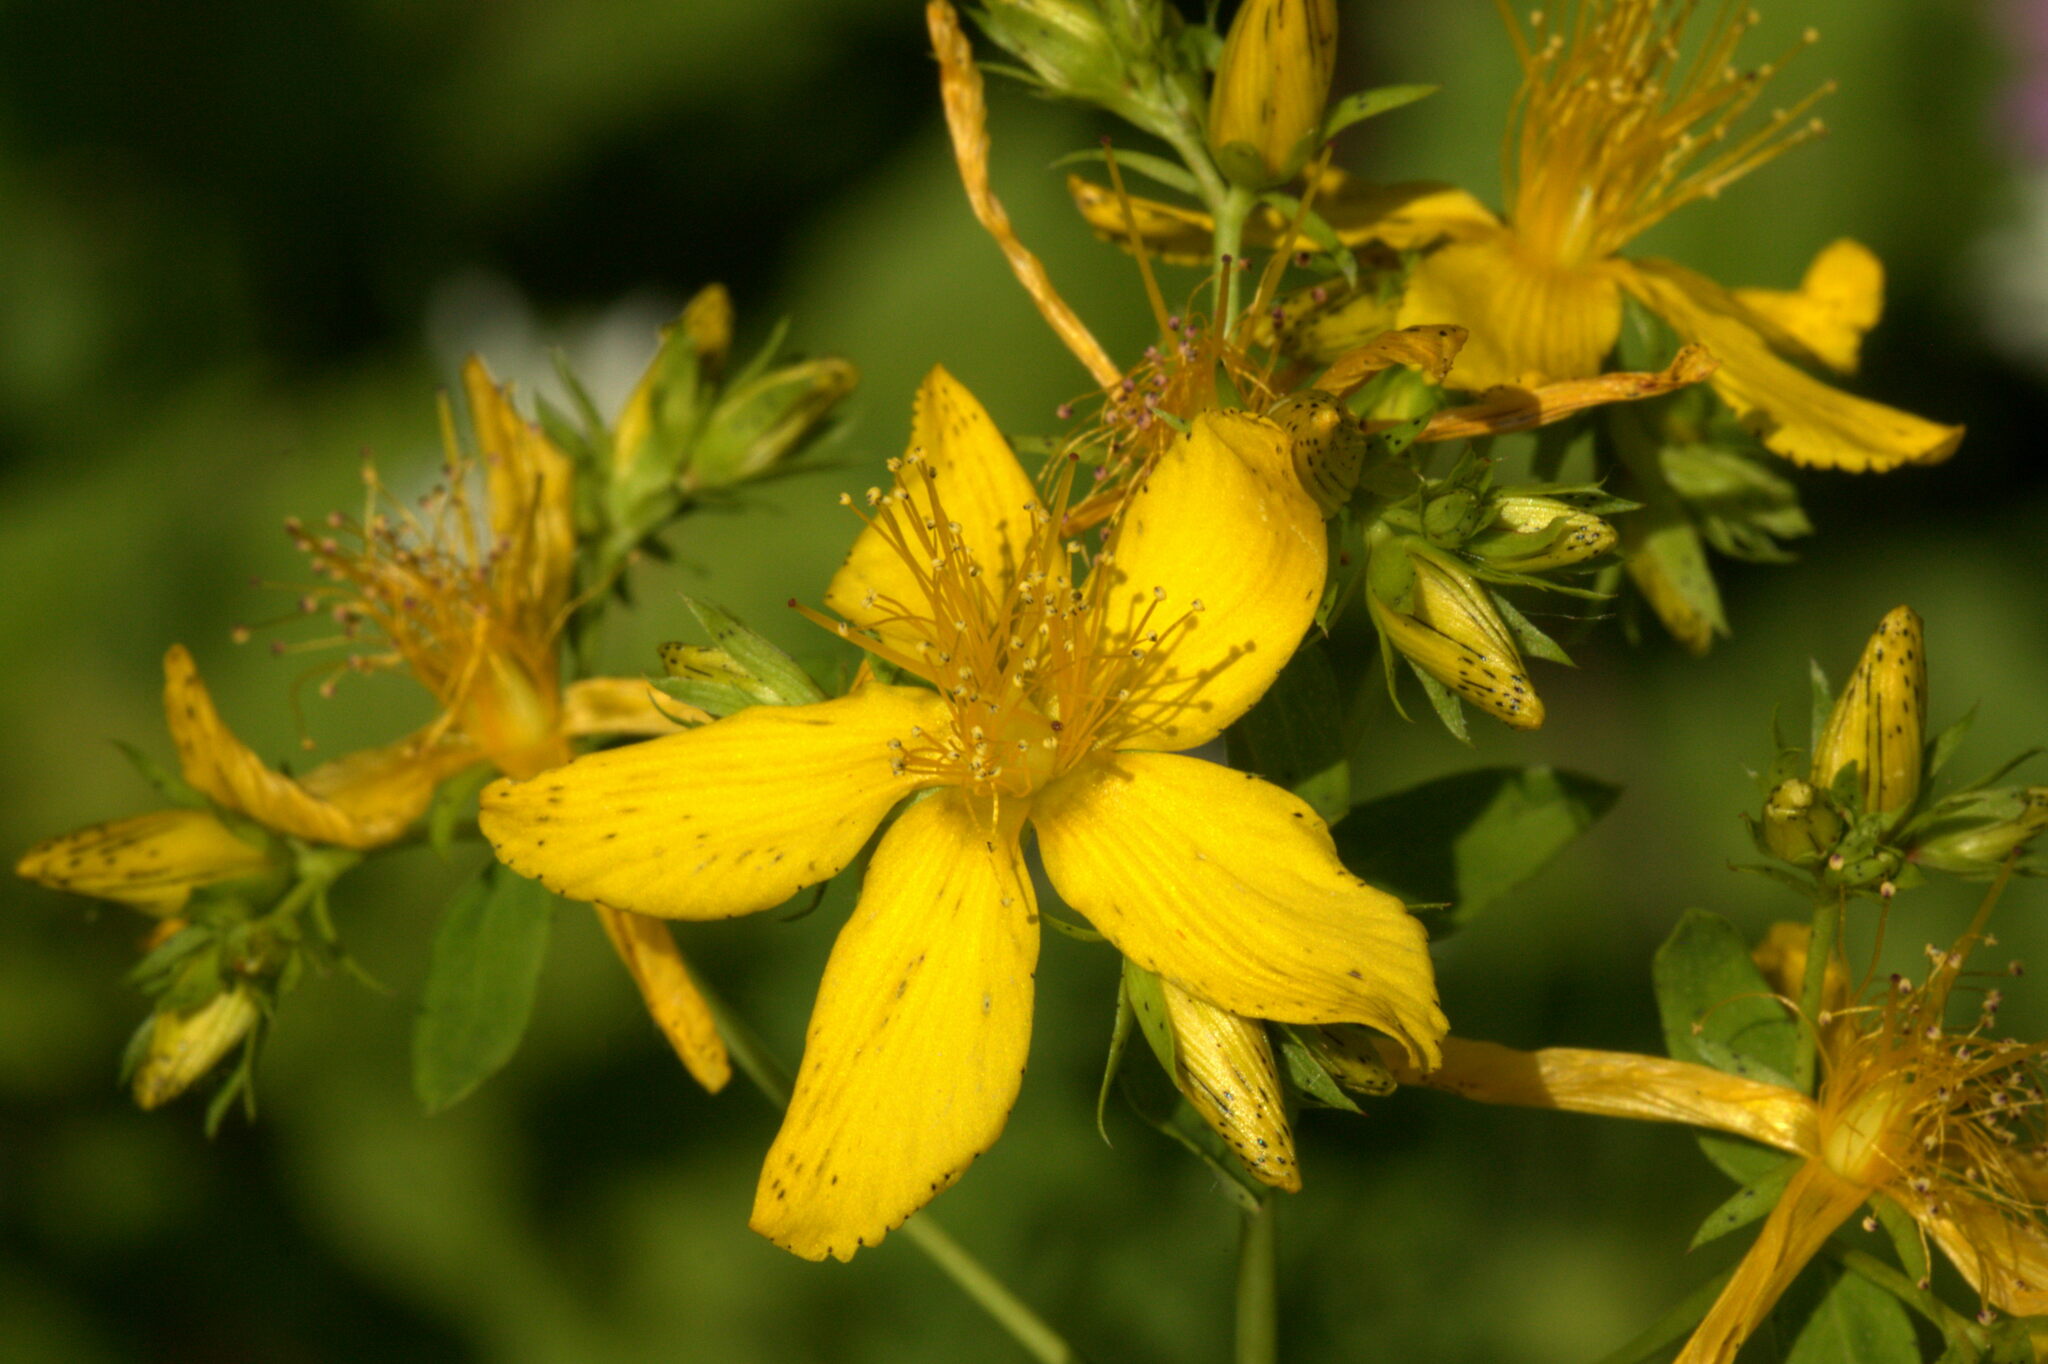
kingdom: Plantae
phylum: Tracheophyta
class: Magnoliopsida
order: Malpighiales
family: Hypericaceae
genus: Hypericum
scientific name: Hypericum perforatum
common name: Common st. johnswort
